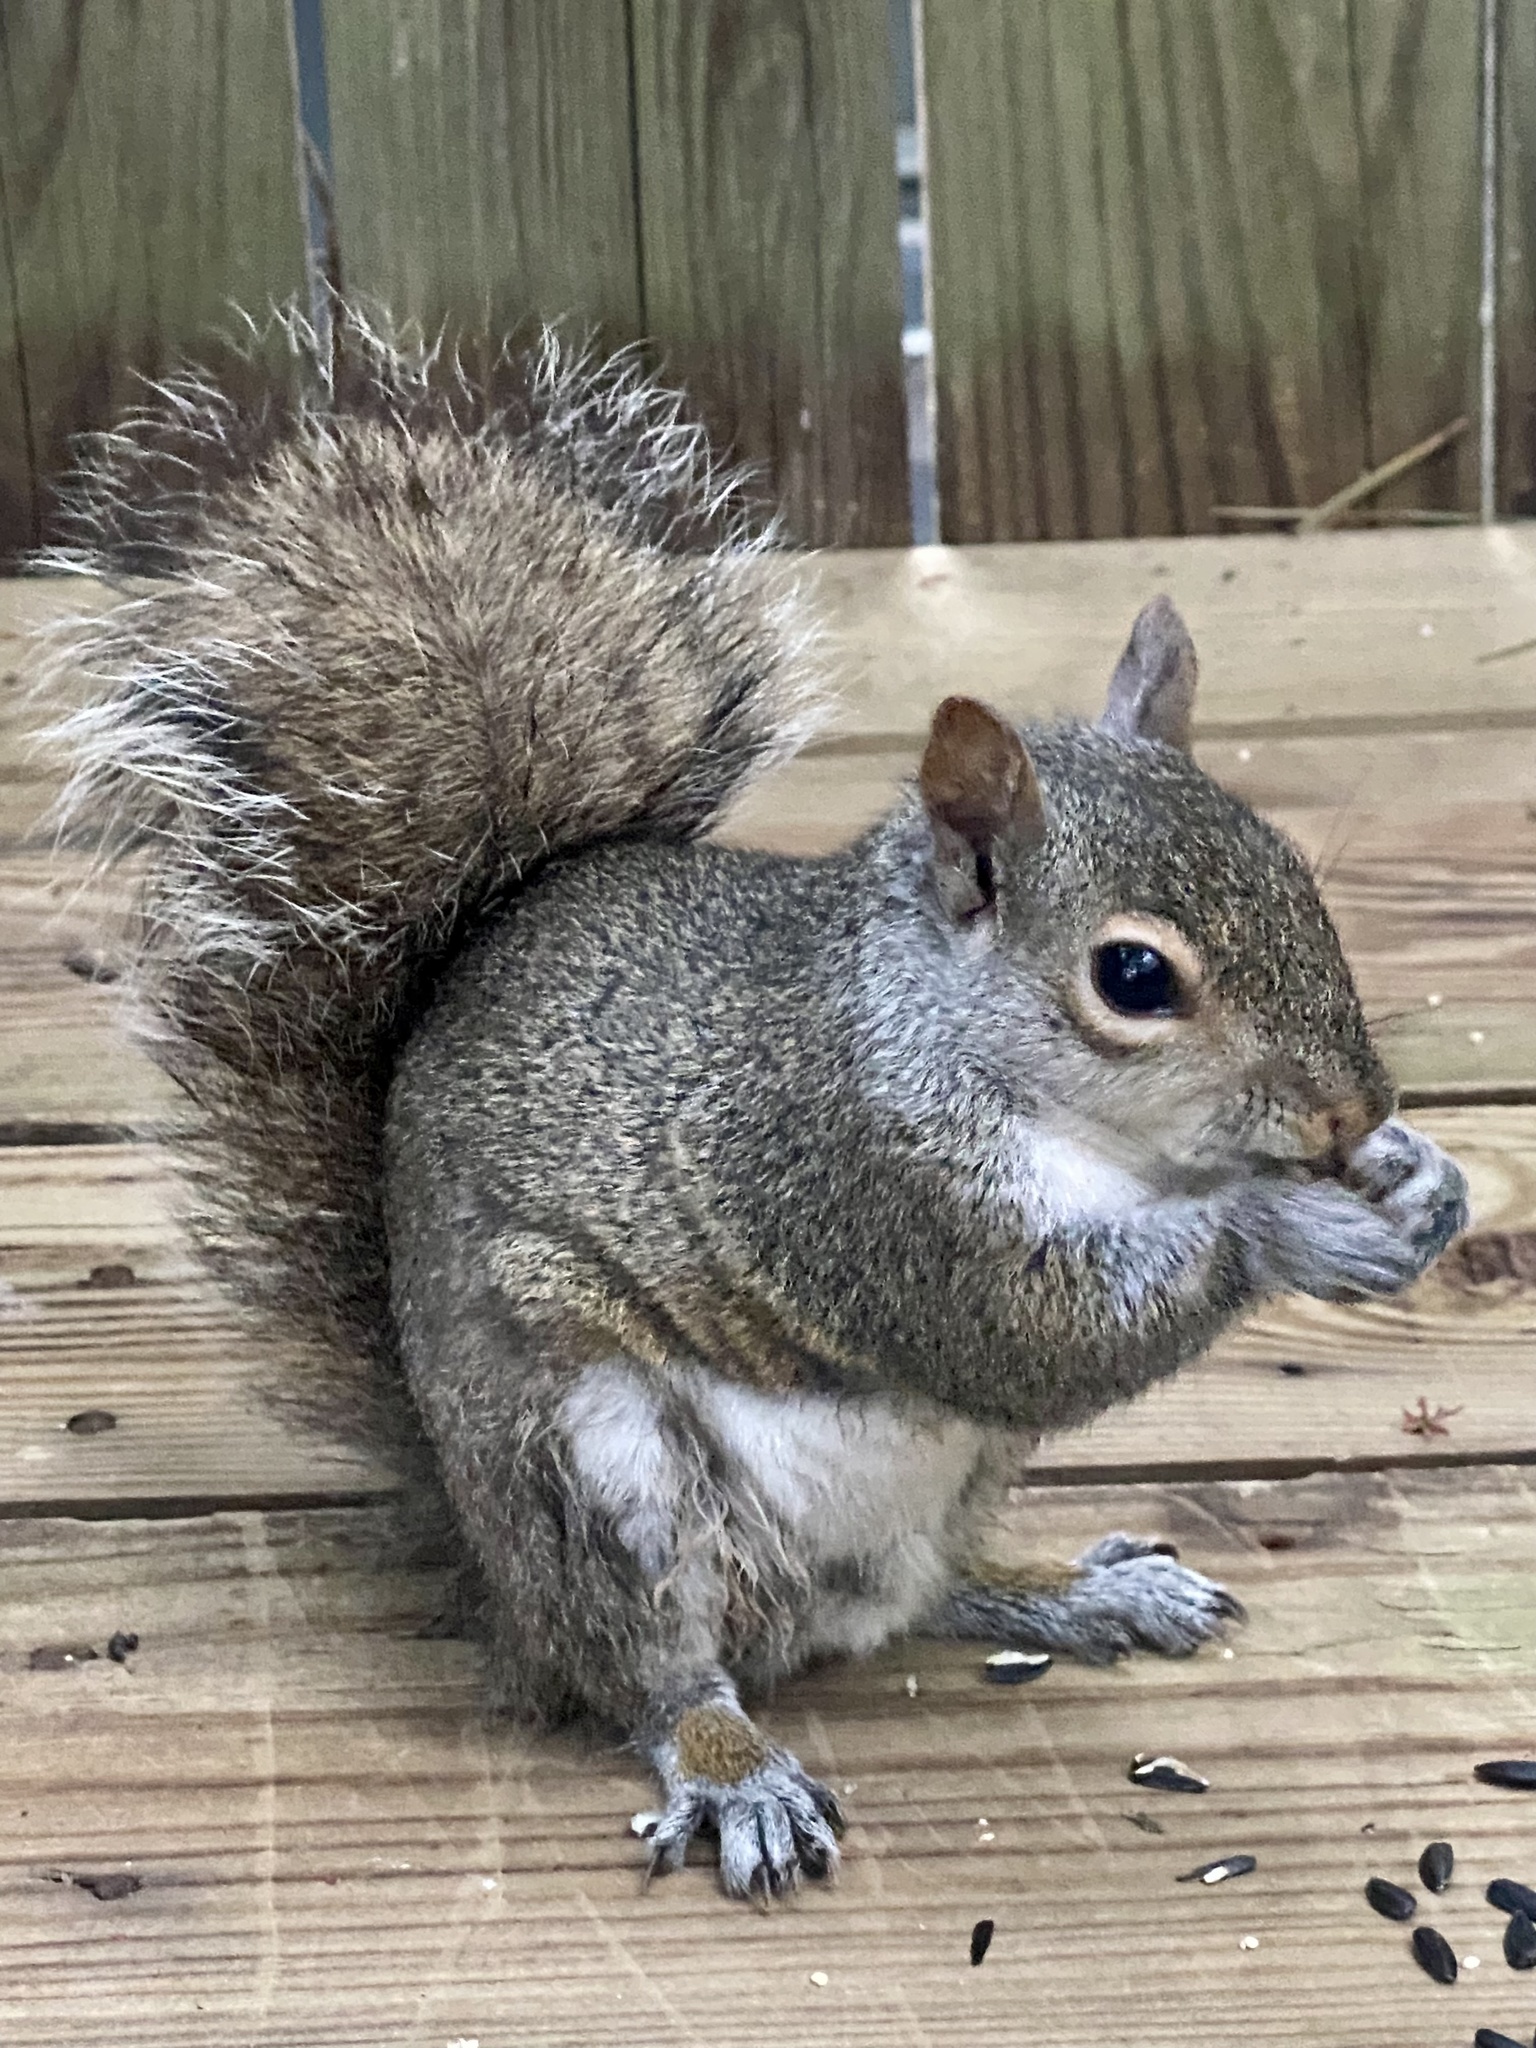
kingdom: Animalia
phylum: Chordata
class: Mammalia
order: Rodentia
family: Sciuridae
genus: Sciurus
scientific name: Sciurus carolinensis
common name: Eastern gray squirrel
